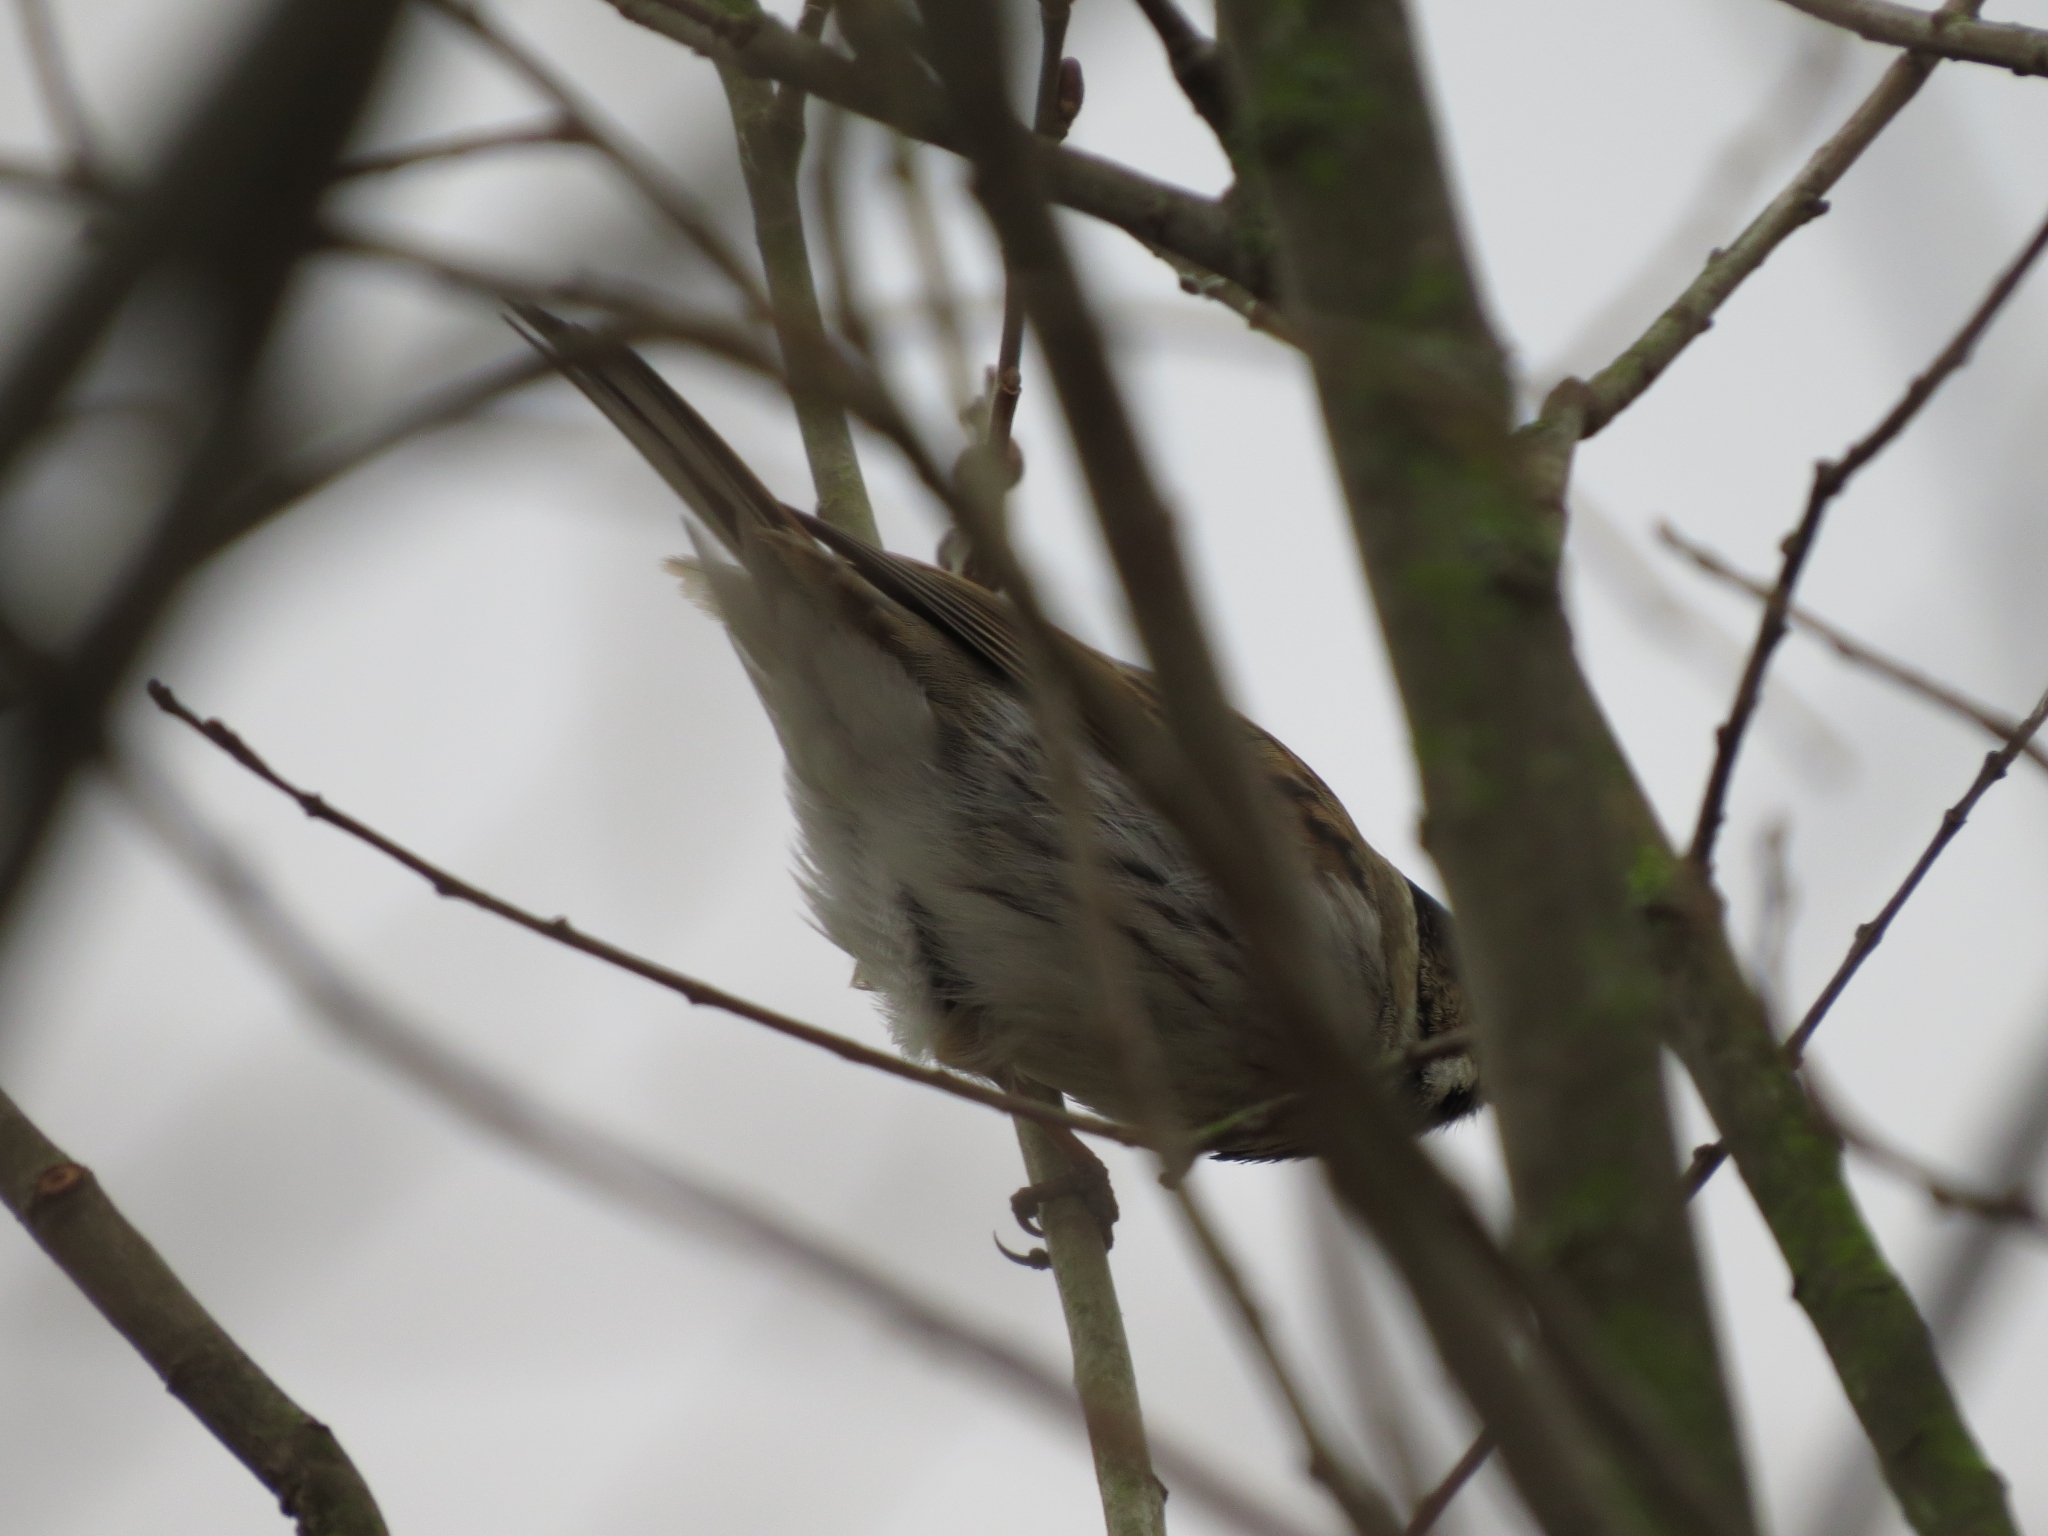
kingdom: Animalia
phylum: Chordata
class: Aves
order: Passeriformes
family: Emberizidae
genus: Emberiza
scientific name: Emberiza schoeniclus
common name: Reed bunting
